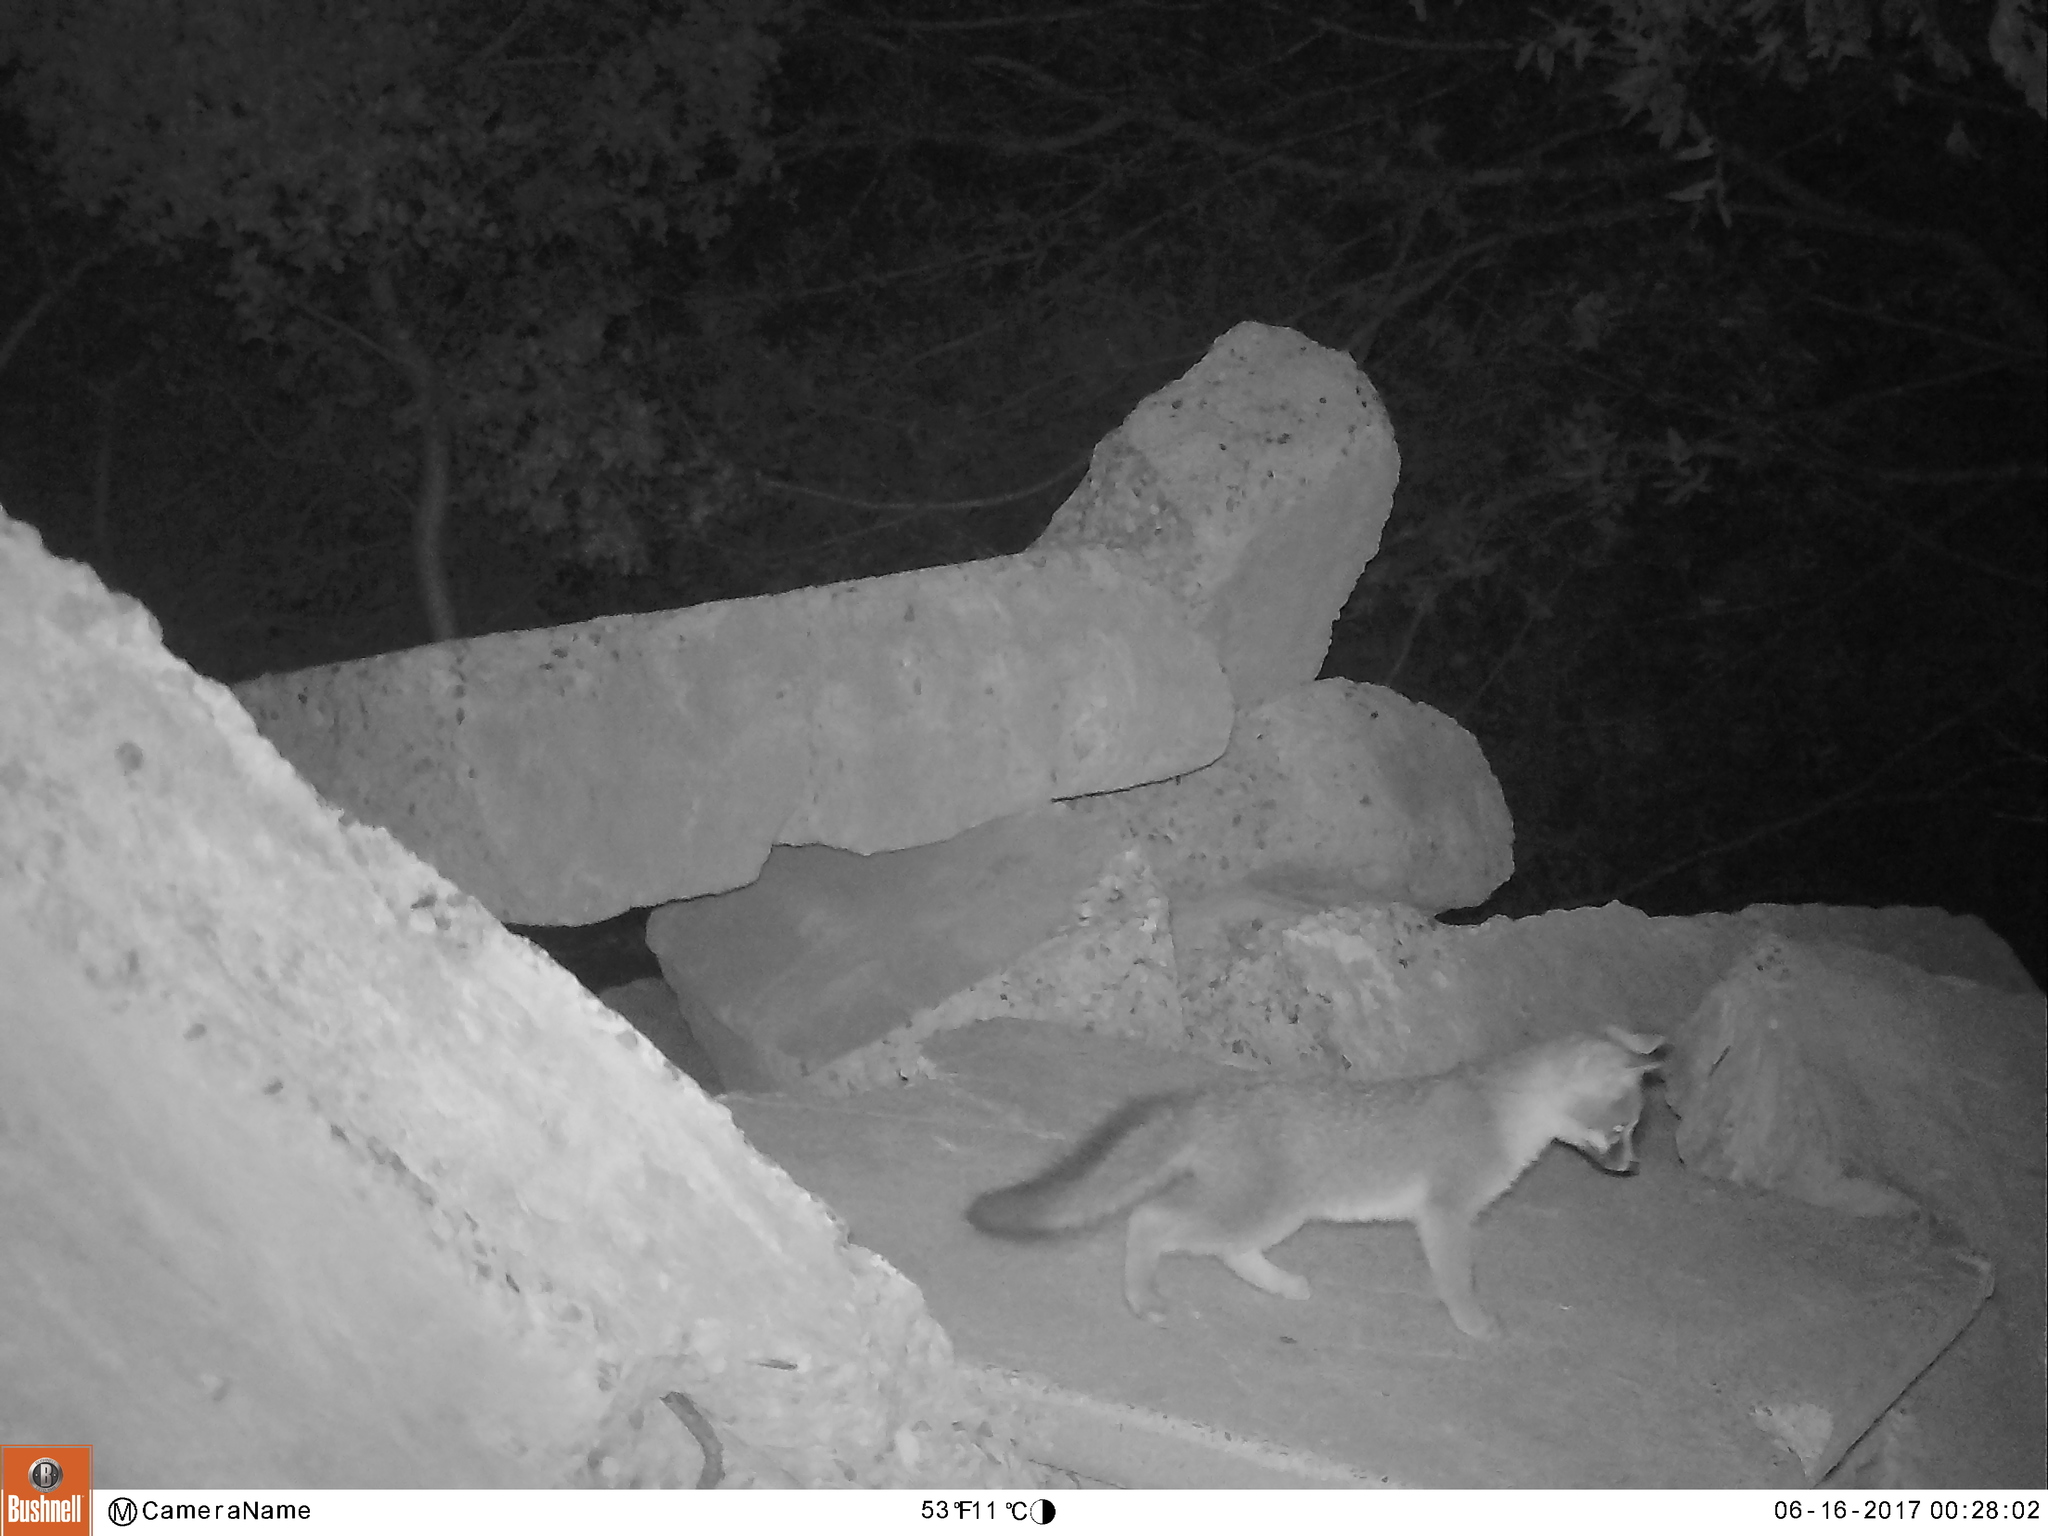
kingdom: Animalia
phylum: Chordata
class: Mammalia
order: Carnivora
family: Canidae
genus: Urocyon
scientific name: Urocyon cinereoargenteus
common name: Gray fox
